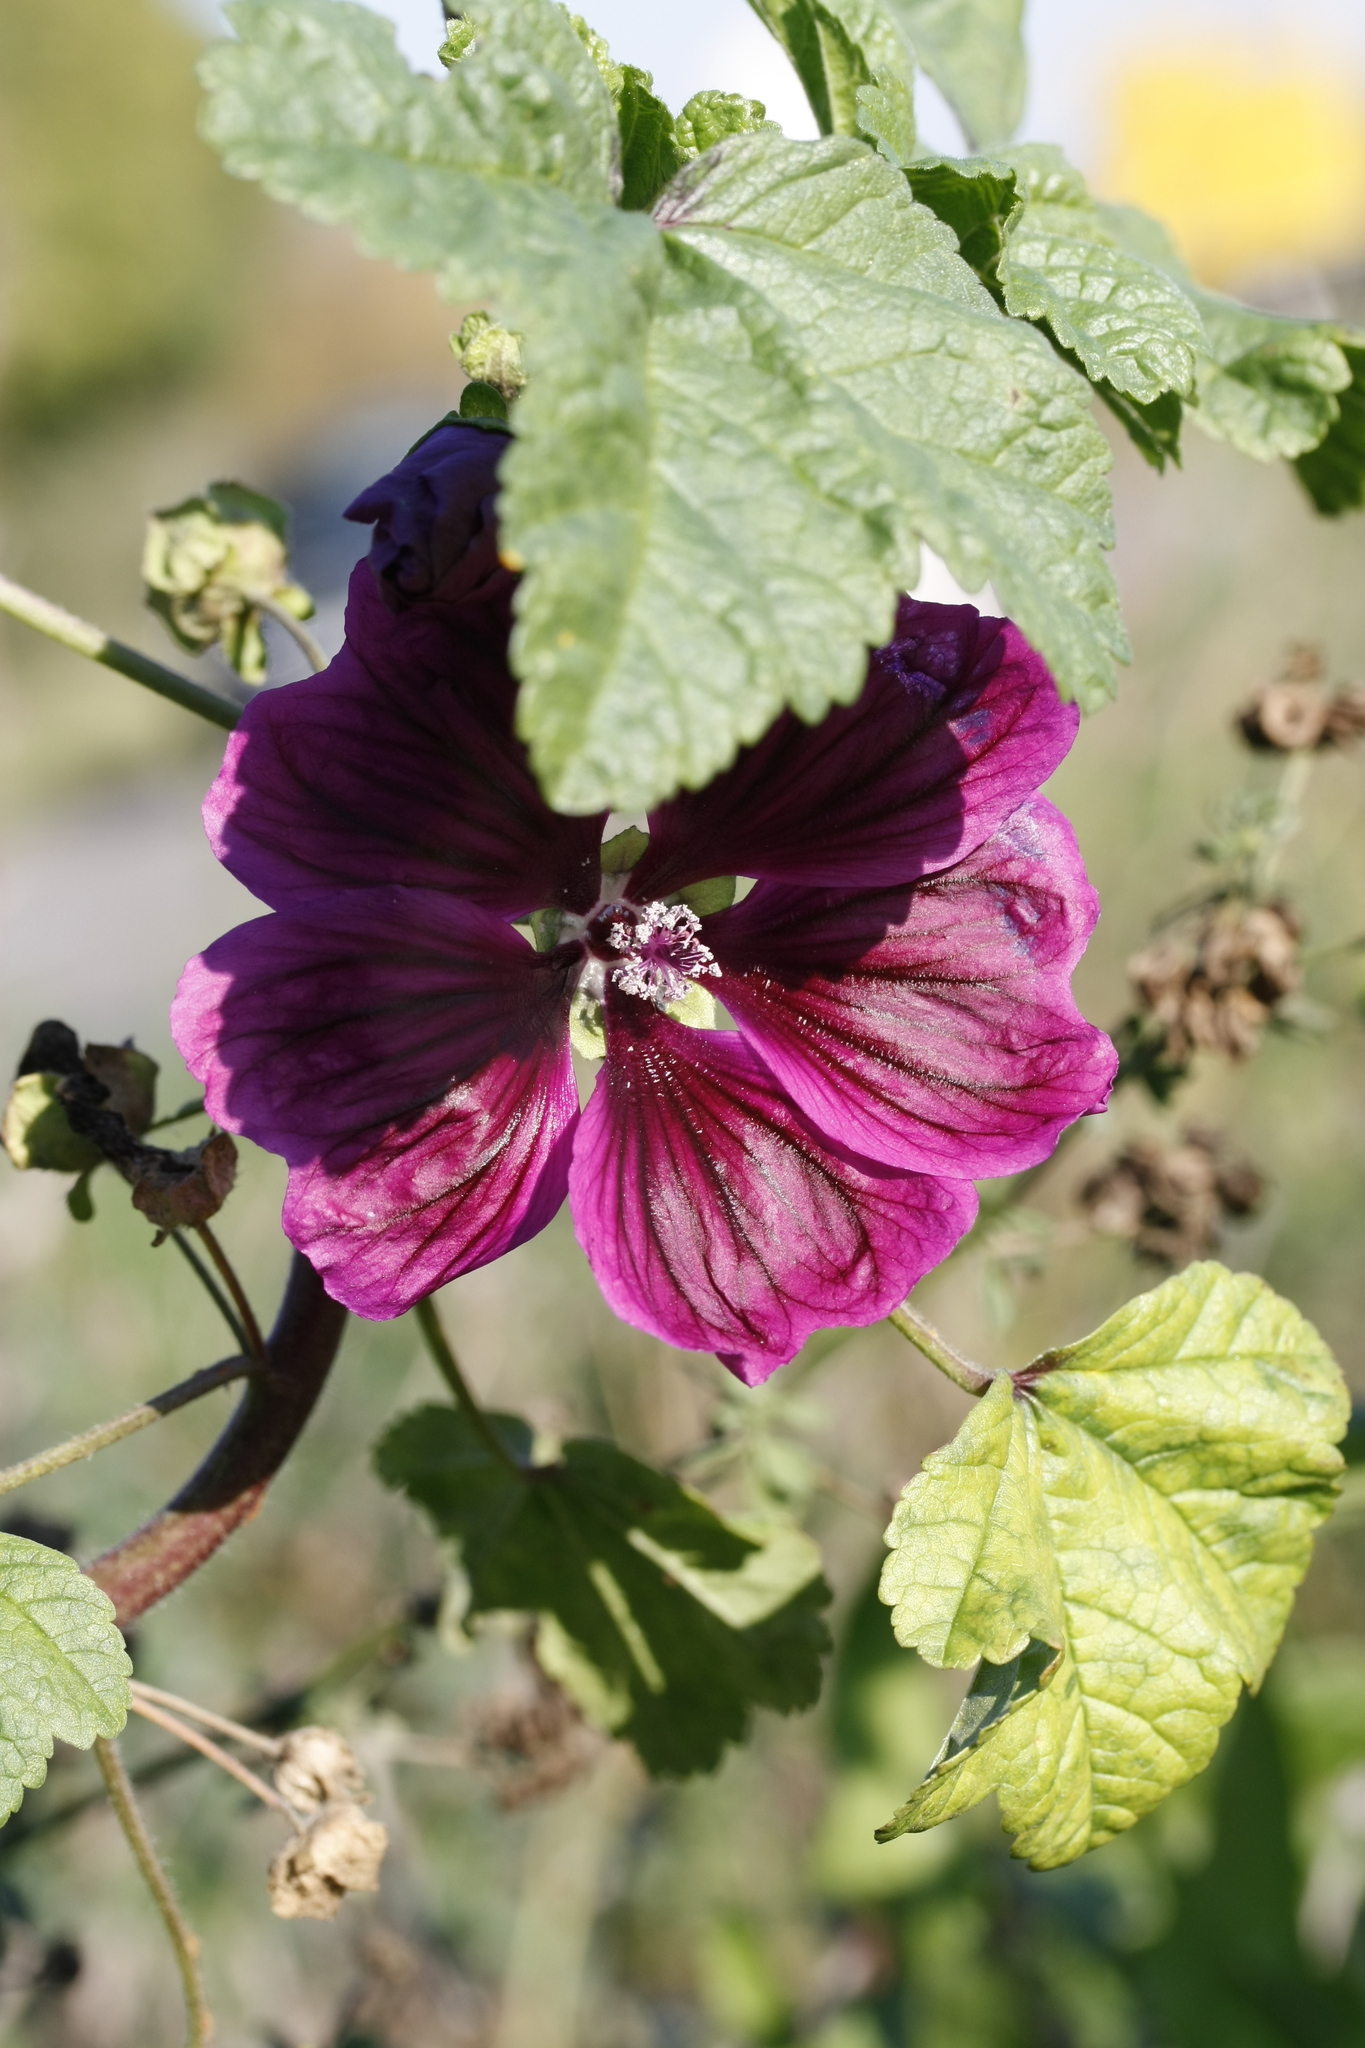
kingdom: Plantae
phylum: Tracheophyta
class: Magnoliopsida
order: Malvales
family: Malvaceae
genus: Malva
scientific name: Malva sylvestris
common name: Common mallow
